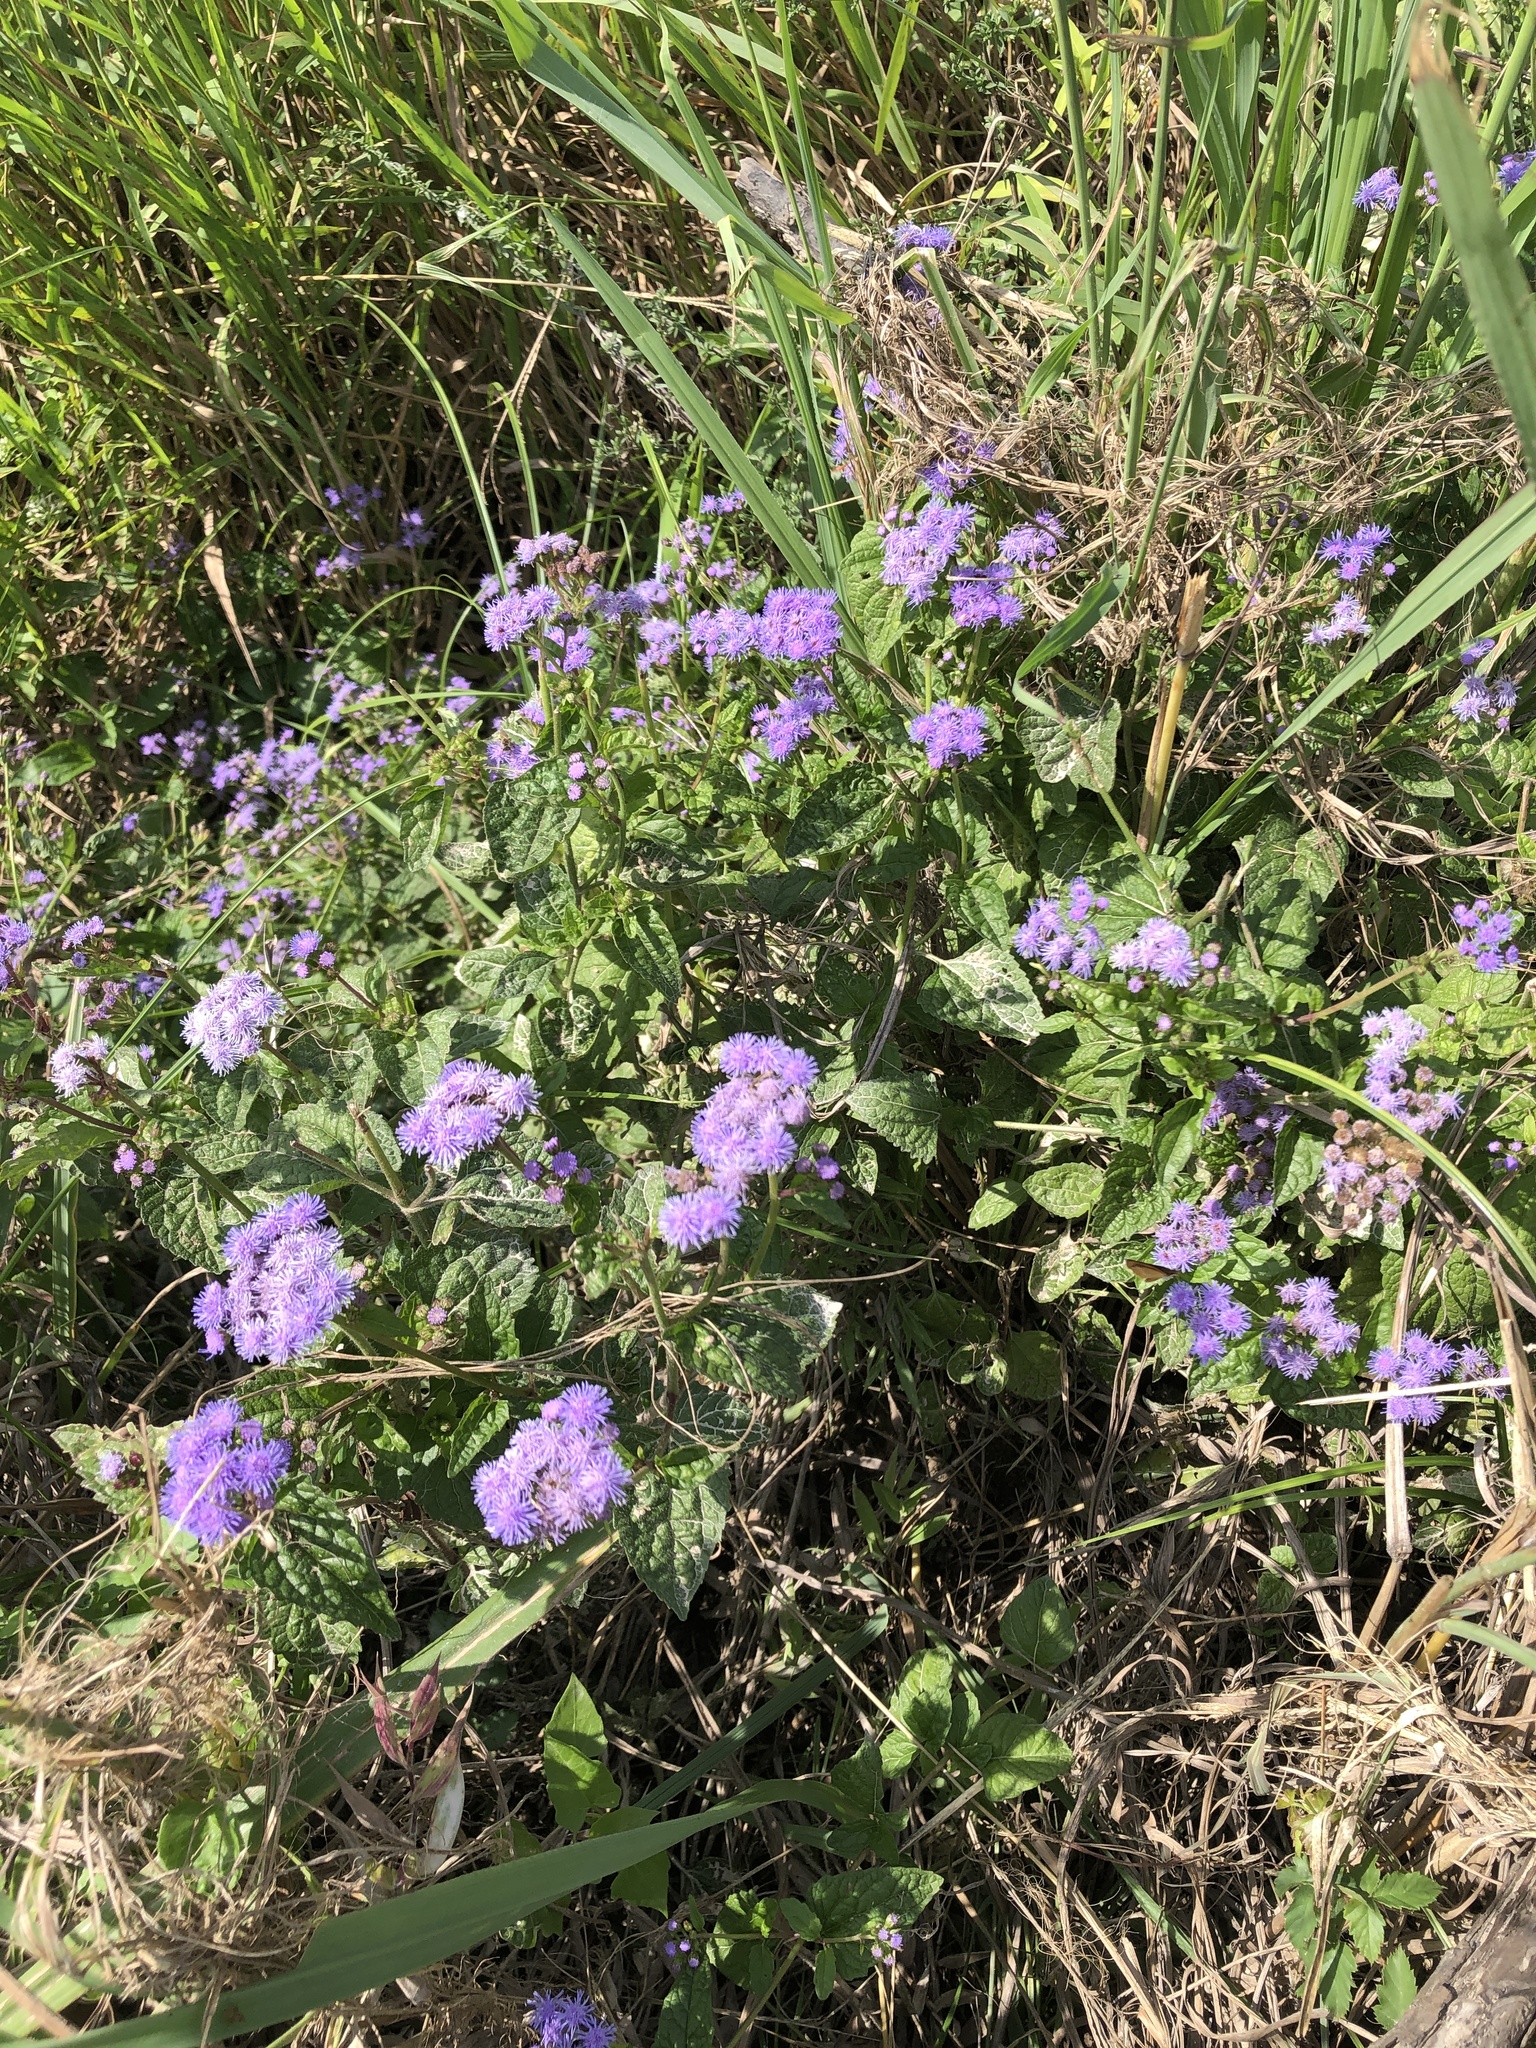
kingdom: Plantae
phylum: Tracheophyta
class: Magnoliopsida
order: Asterales
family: Asteraceae
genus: Conoclinium
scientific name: Conoclinium coelestinum
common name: Blue mistflower
